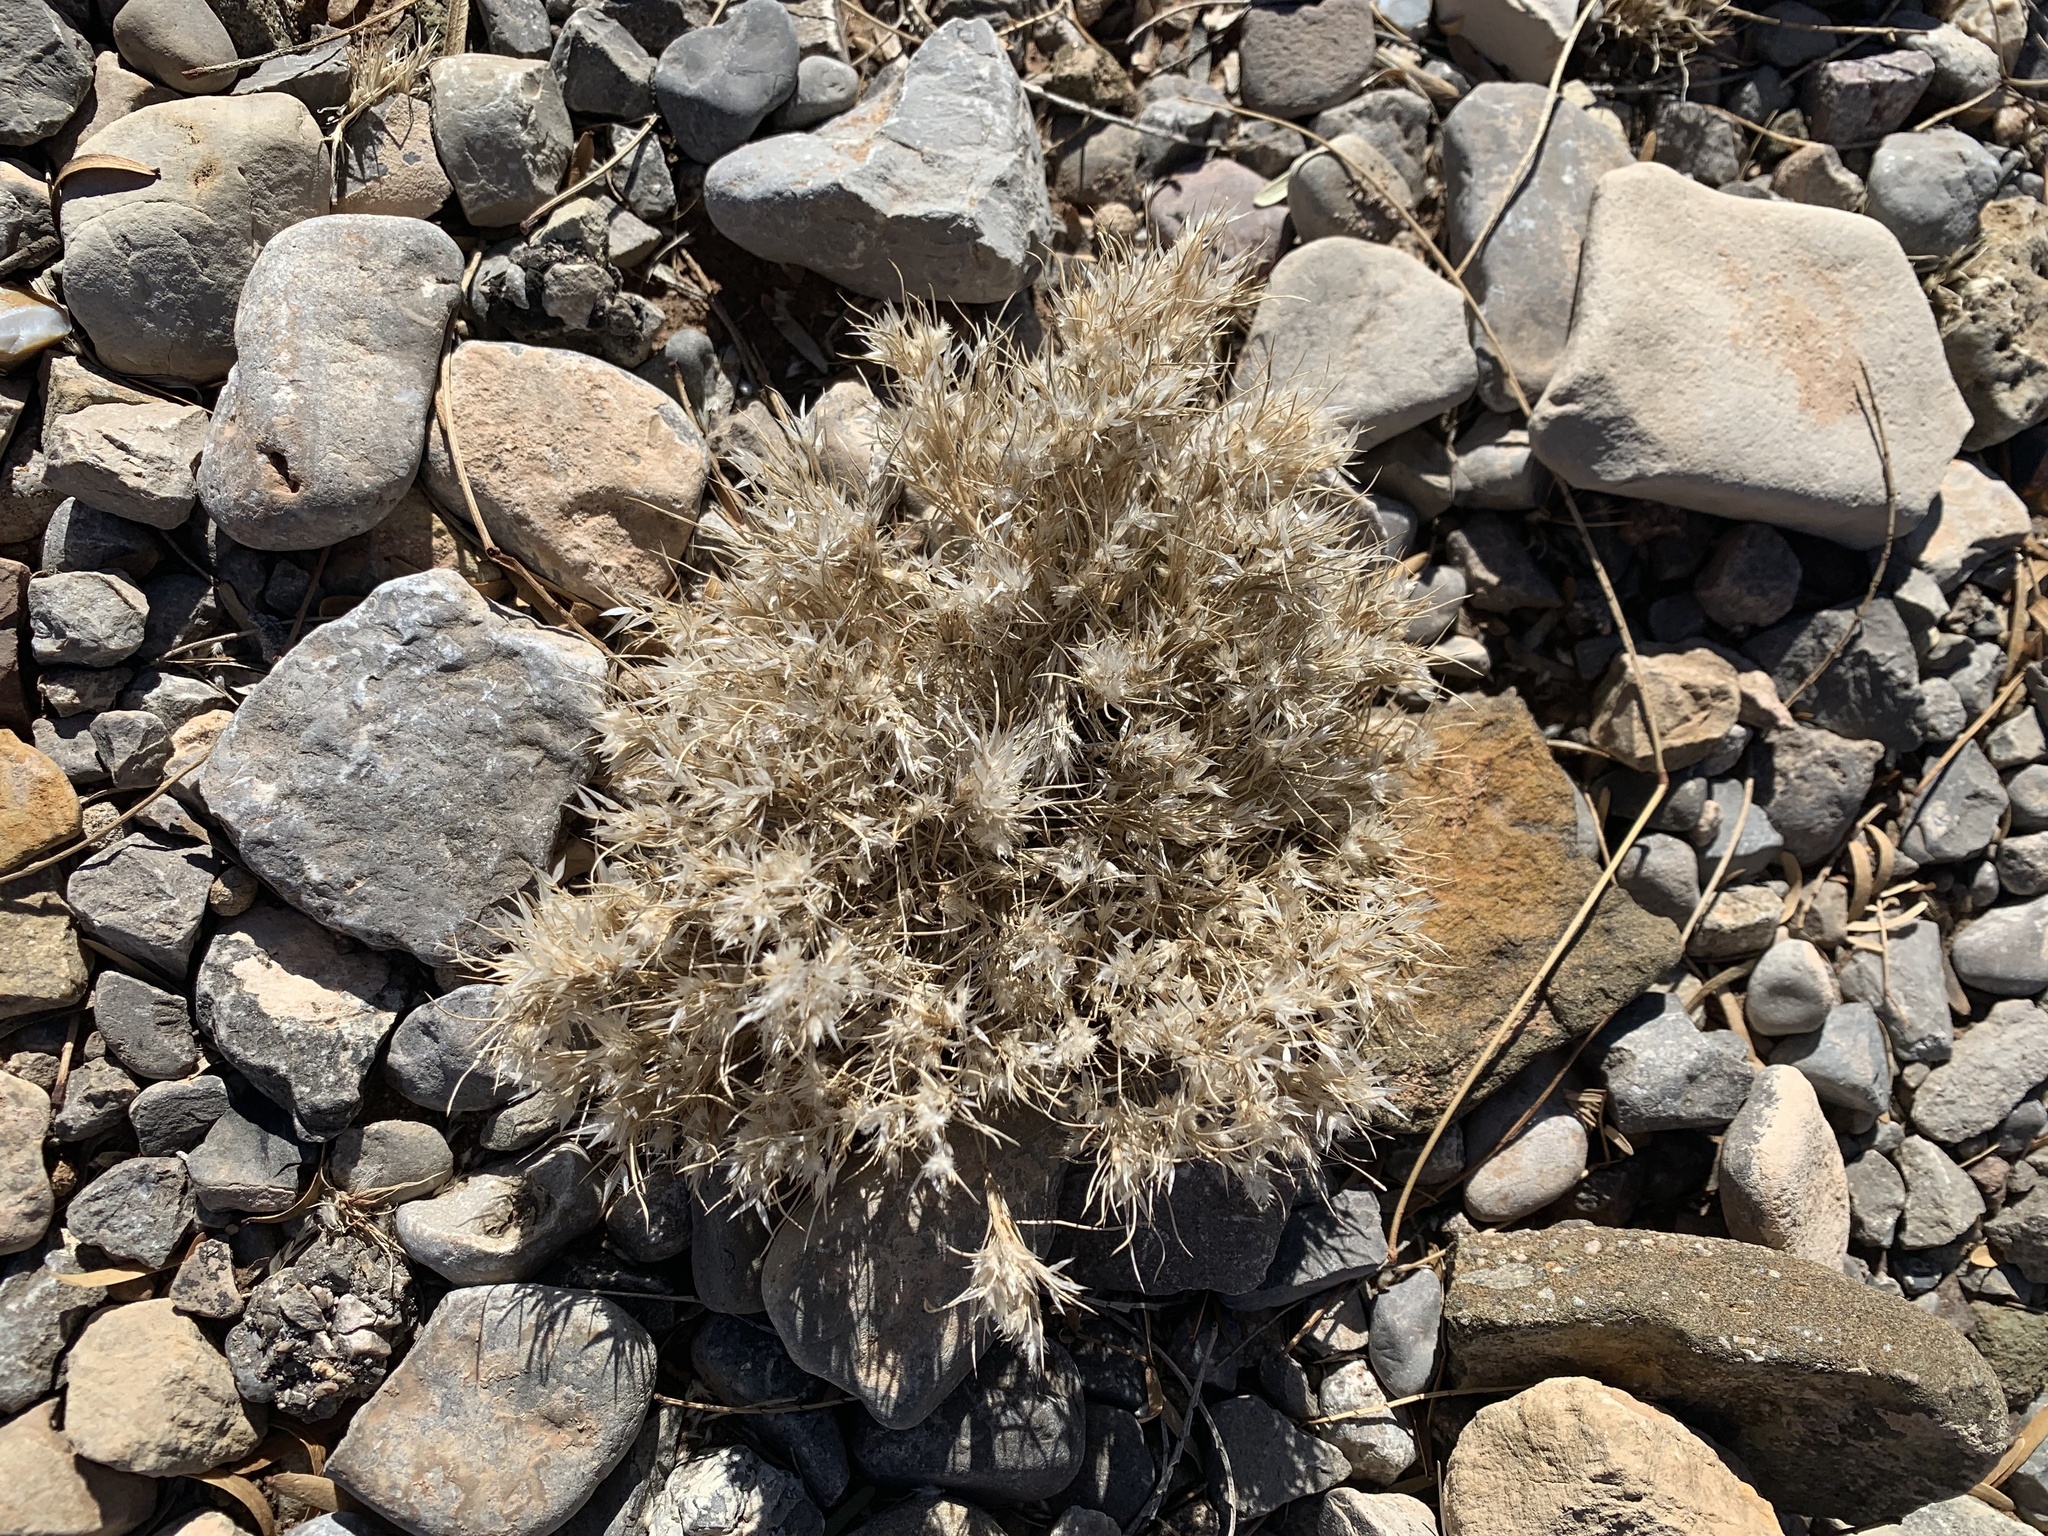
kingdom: Plantae
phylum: Tracheophyta
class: Liliopsida
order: Poales
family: Poaceae
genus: Dasyochloa
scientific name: Dasyochloa pulchella
